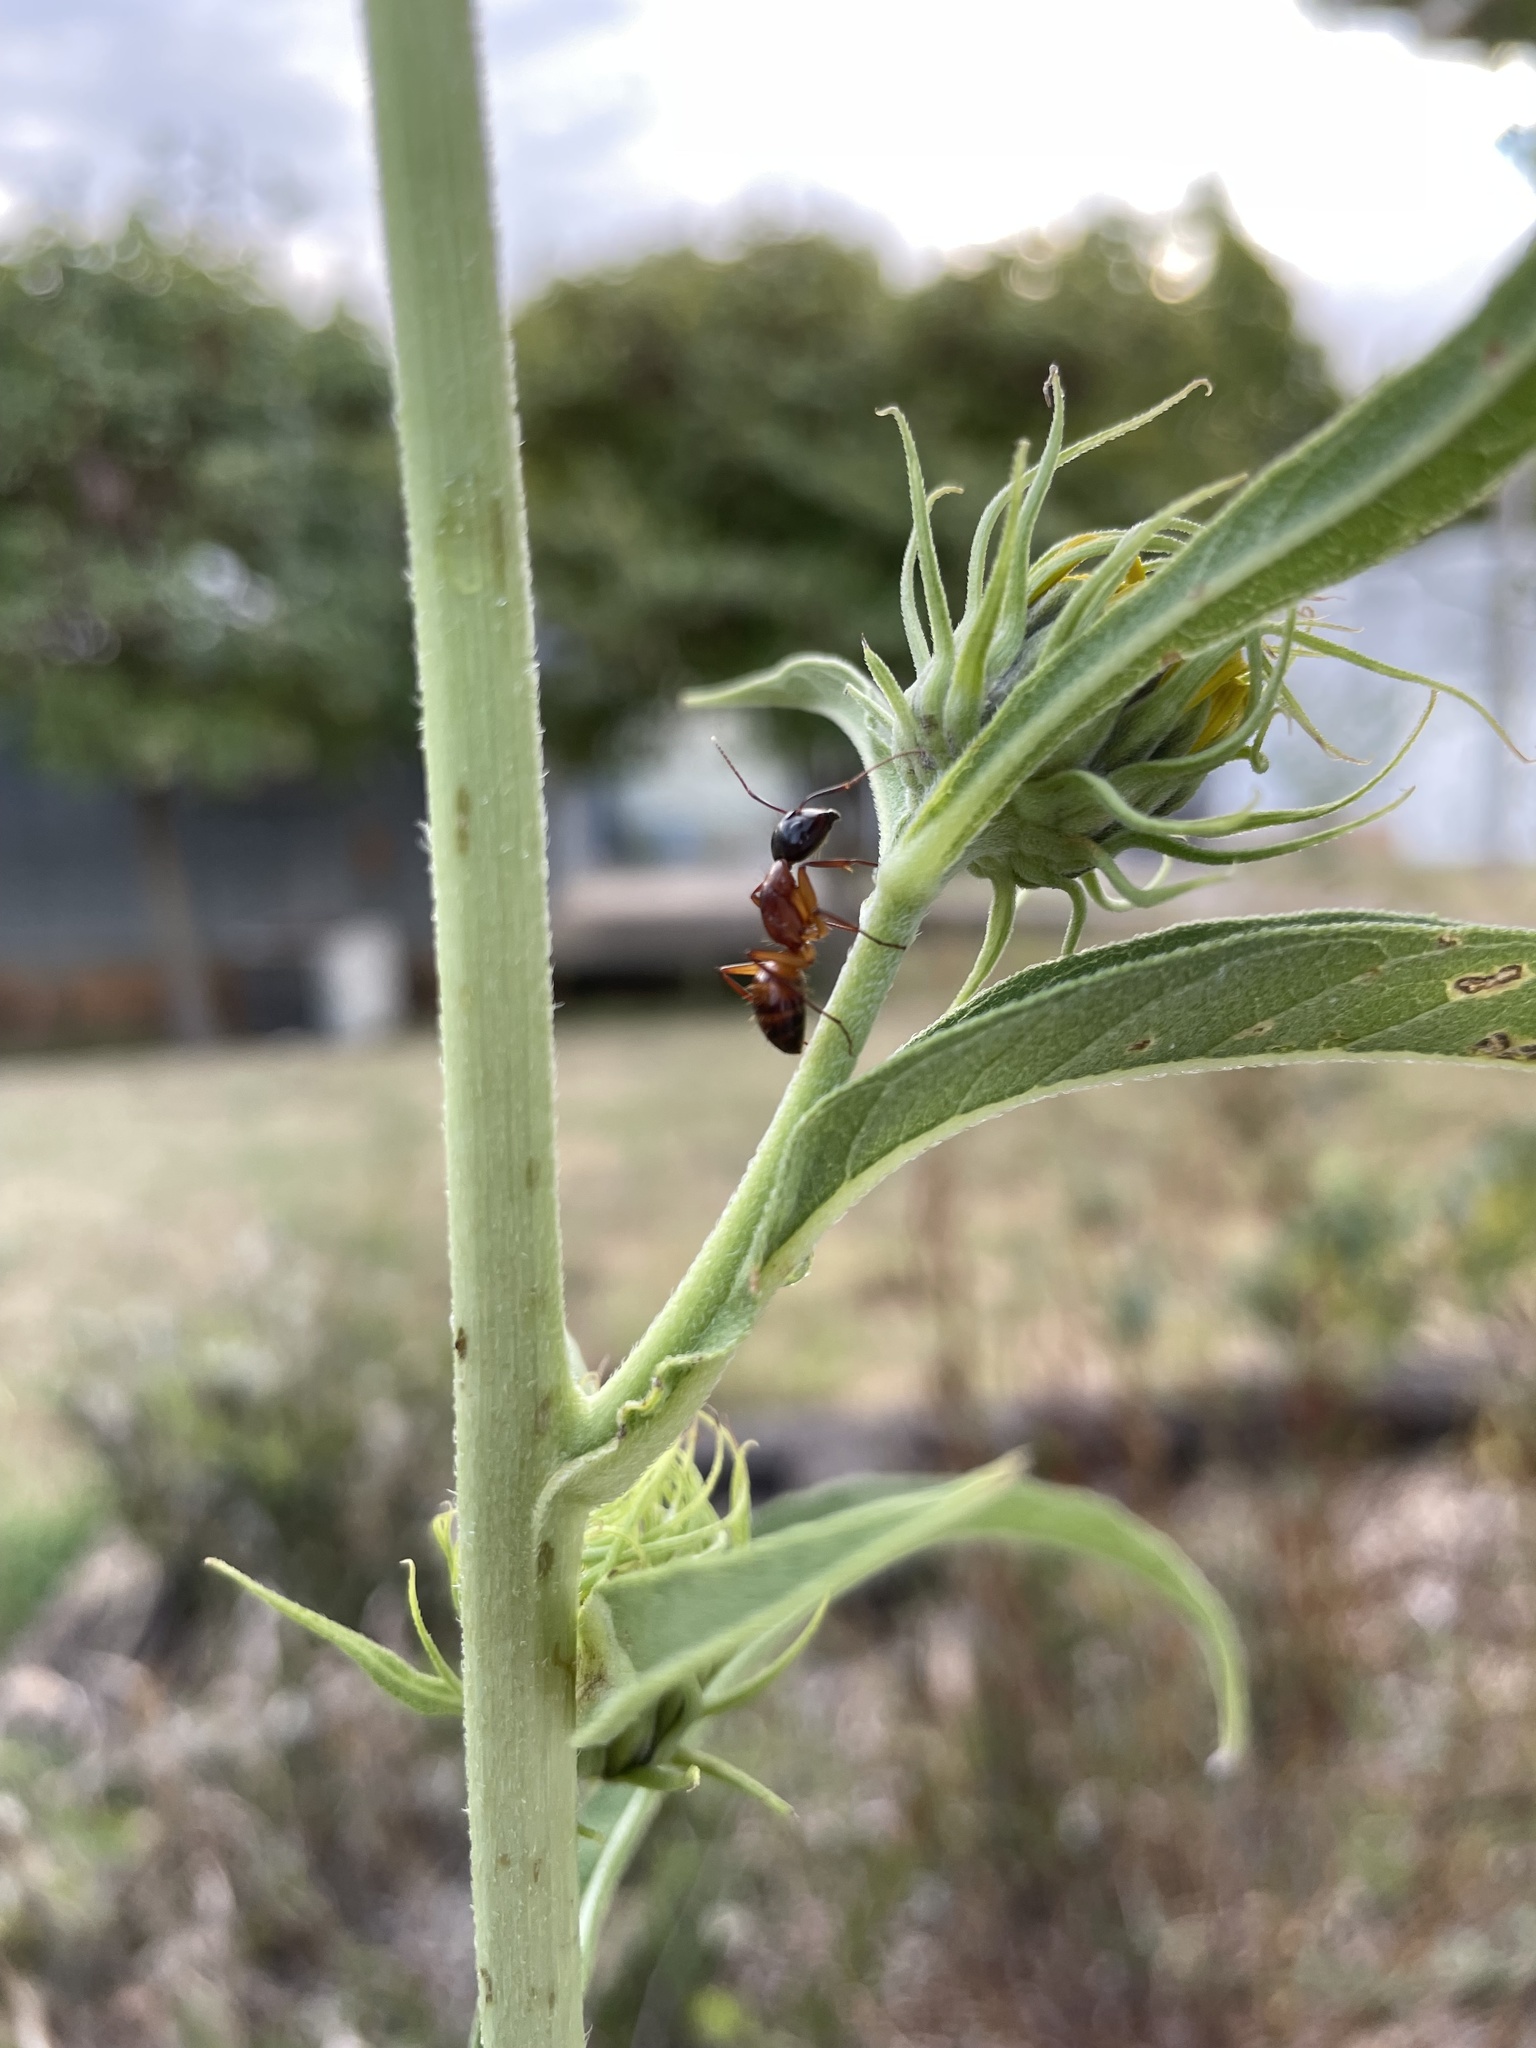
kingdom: Animalia
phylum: Arthropoda
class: Insecta
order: Hymenoptera
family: Formicidae
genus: Camponotus
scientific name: Camponotus americanus
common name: American carpenter ant
